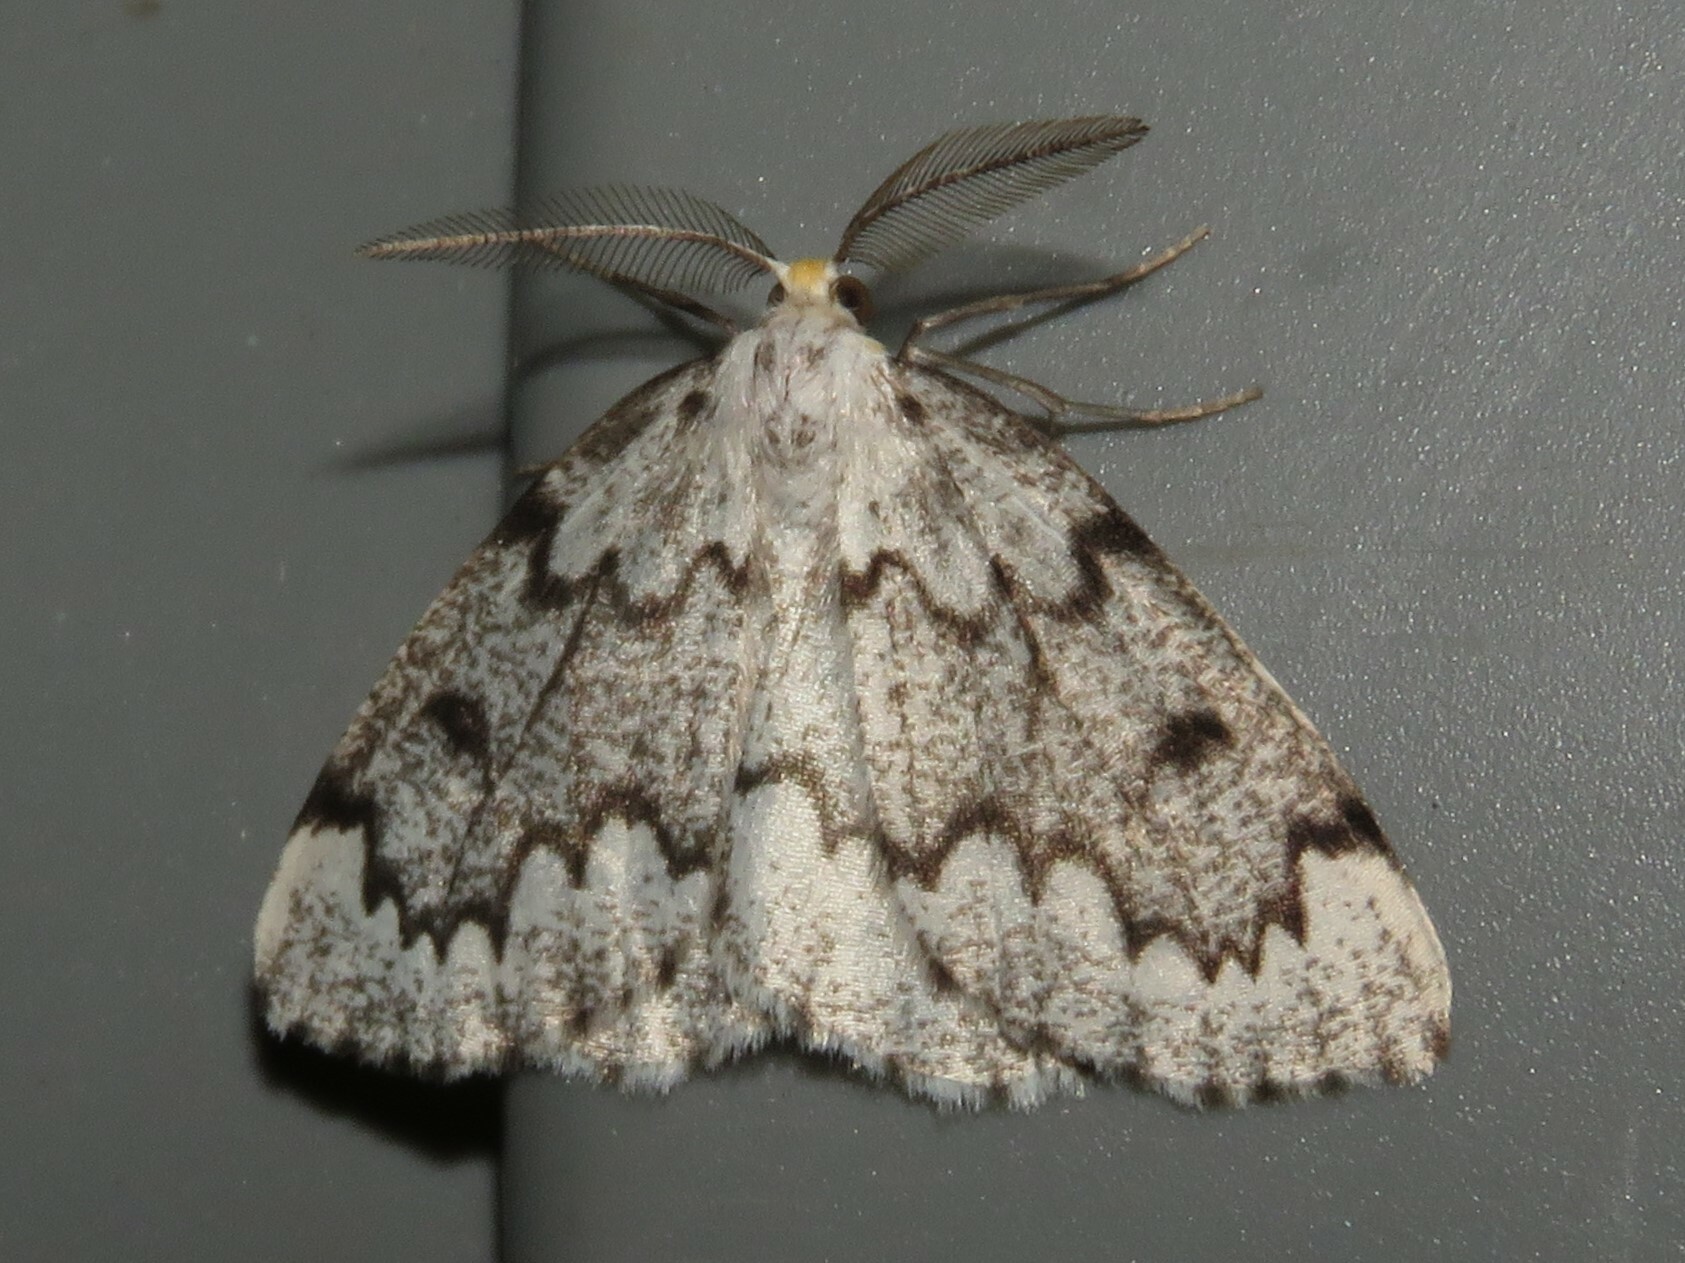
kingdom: Animalia
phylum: Arthropoda
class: Insecta
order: Lepidoptera
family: Geometridae
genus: Nepytia
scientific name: Nepytia canosaria
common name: False hemlock looper
